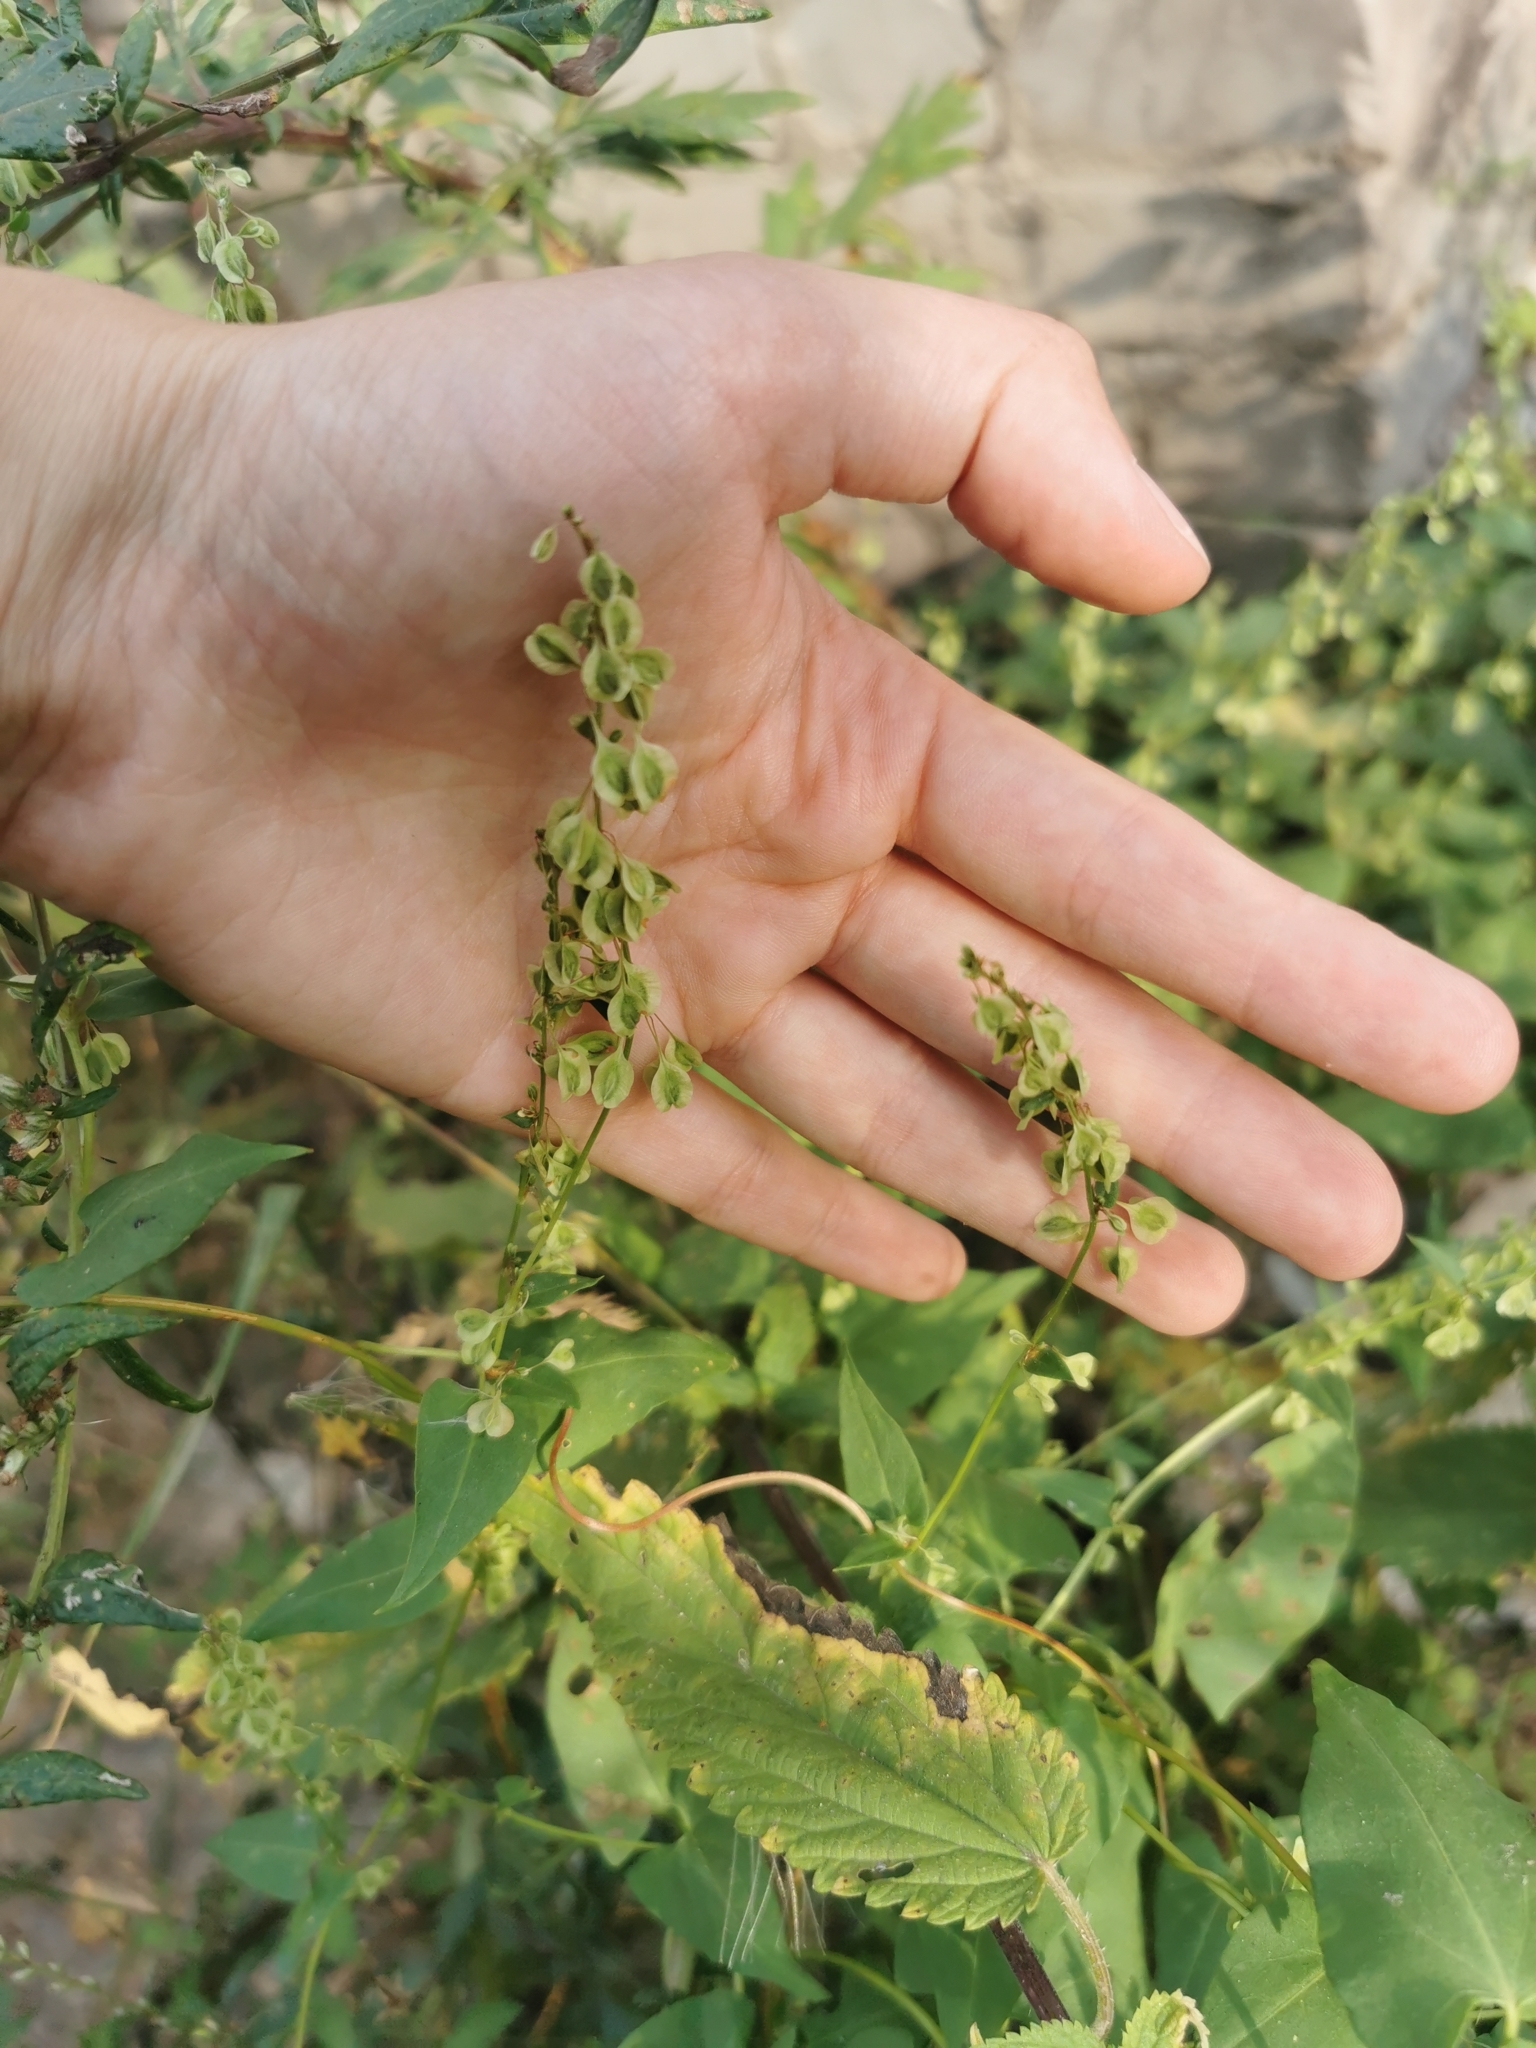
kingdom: Plantae
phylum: Tracheophyta
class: Magnoliopsida
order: Caryophyllales
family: Polygonaceae
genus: Fallopia
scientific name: Fallopia dumetorum
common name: Copse-bindweed
